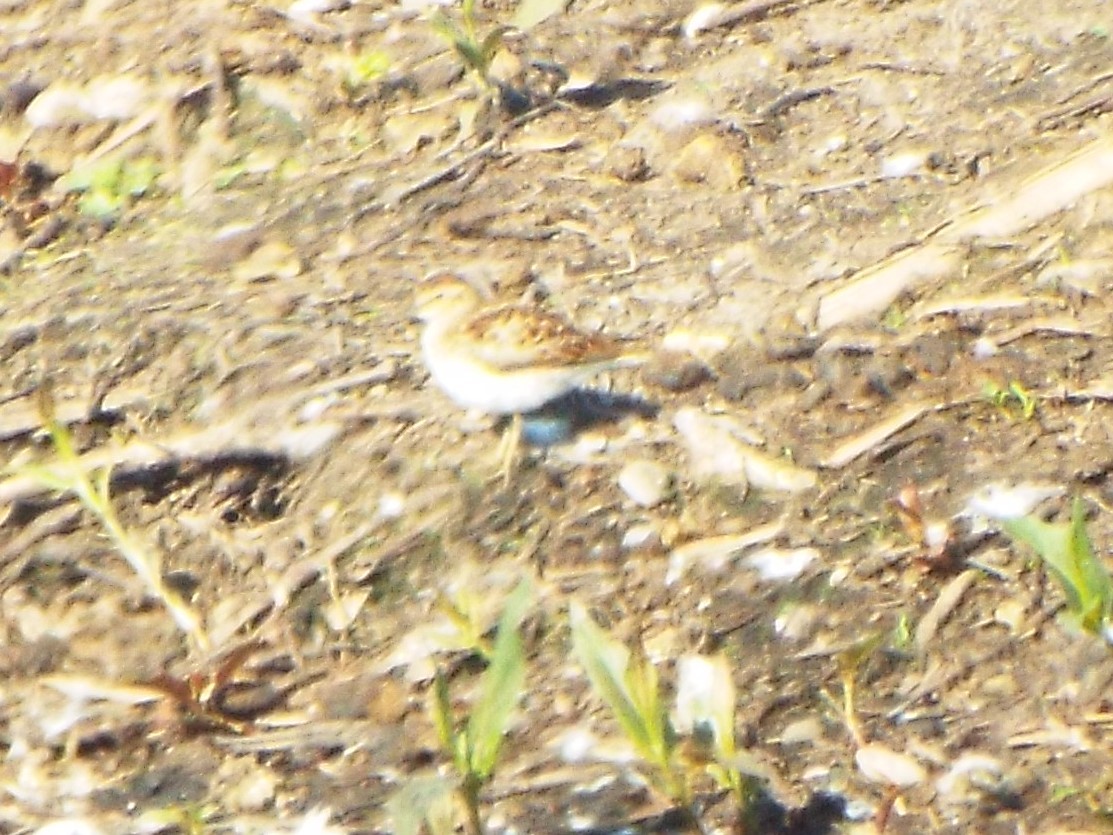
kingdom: Animalia
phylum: Chordata
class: Aves
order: Charadriiformes
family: Scolopacidae
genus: Calidris
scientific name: Calidris minutilla
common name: Least sandpiper
